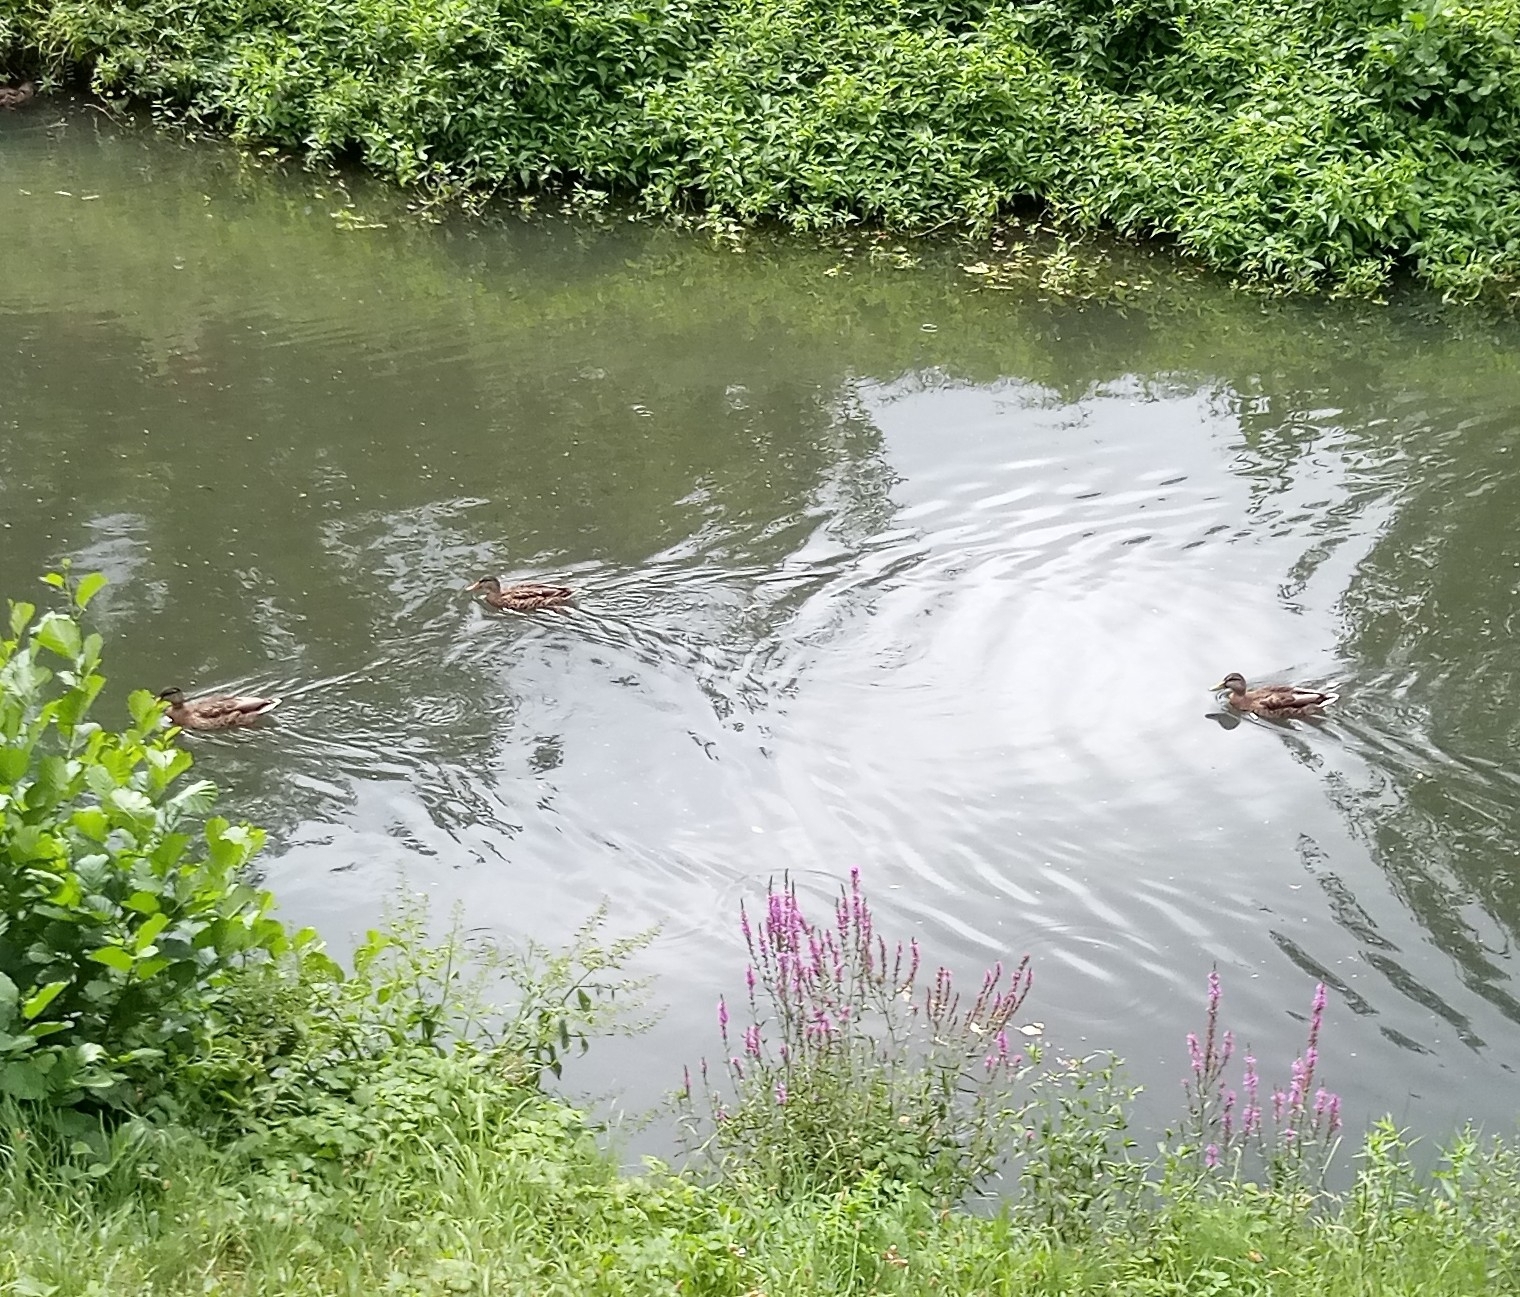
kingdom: Animalia
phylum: Chordata
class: Aves
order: Anseriformes
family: Anatidae
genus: Anas
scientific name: Anas platyrhynchos
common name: Mallard
